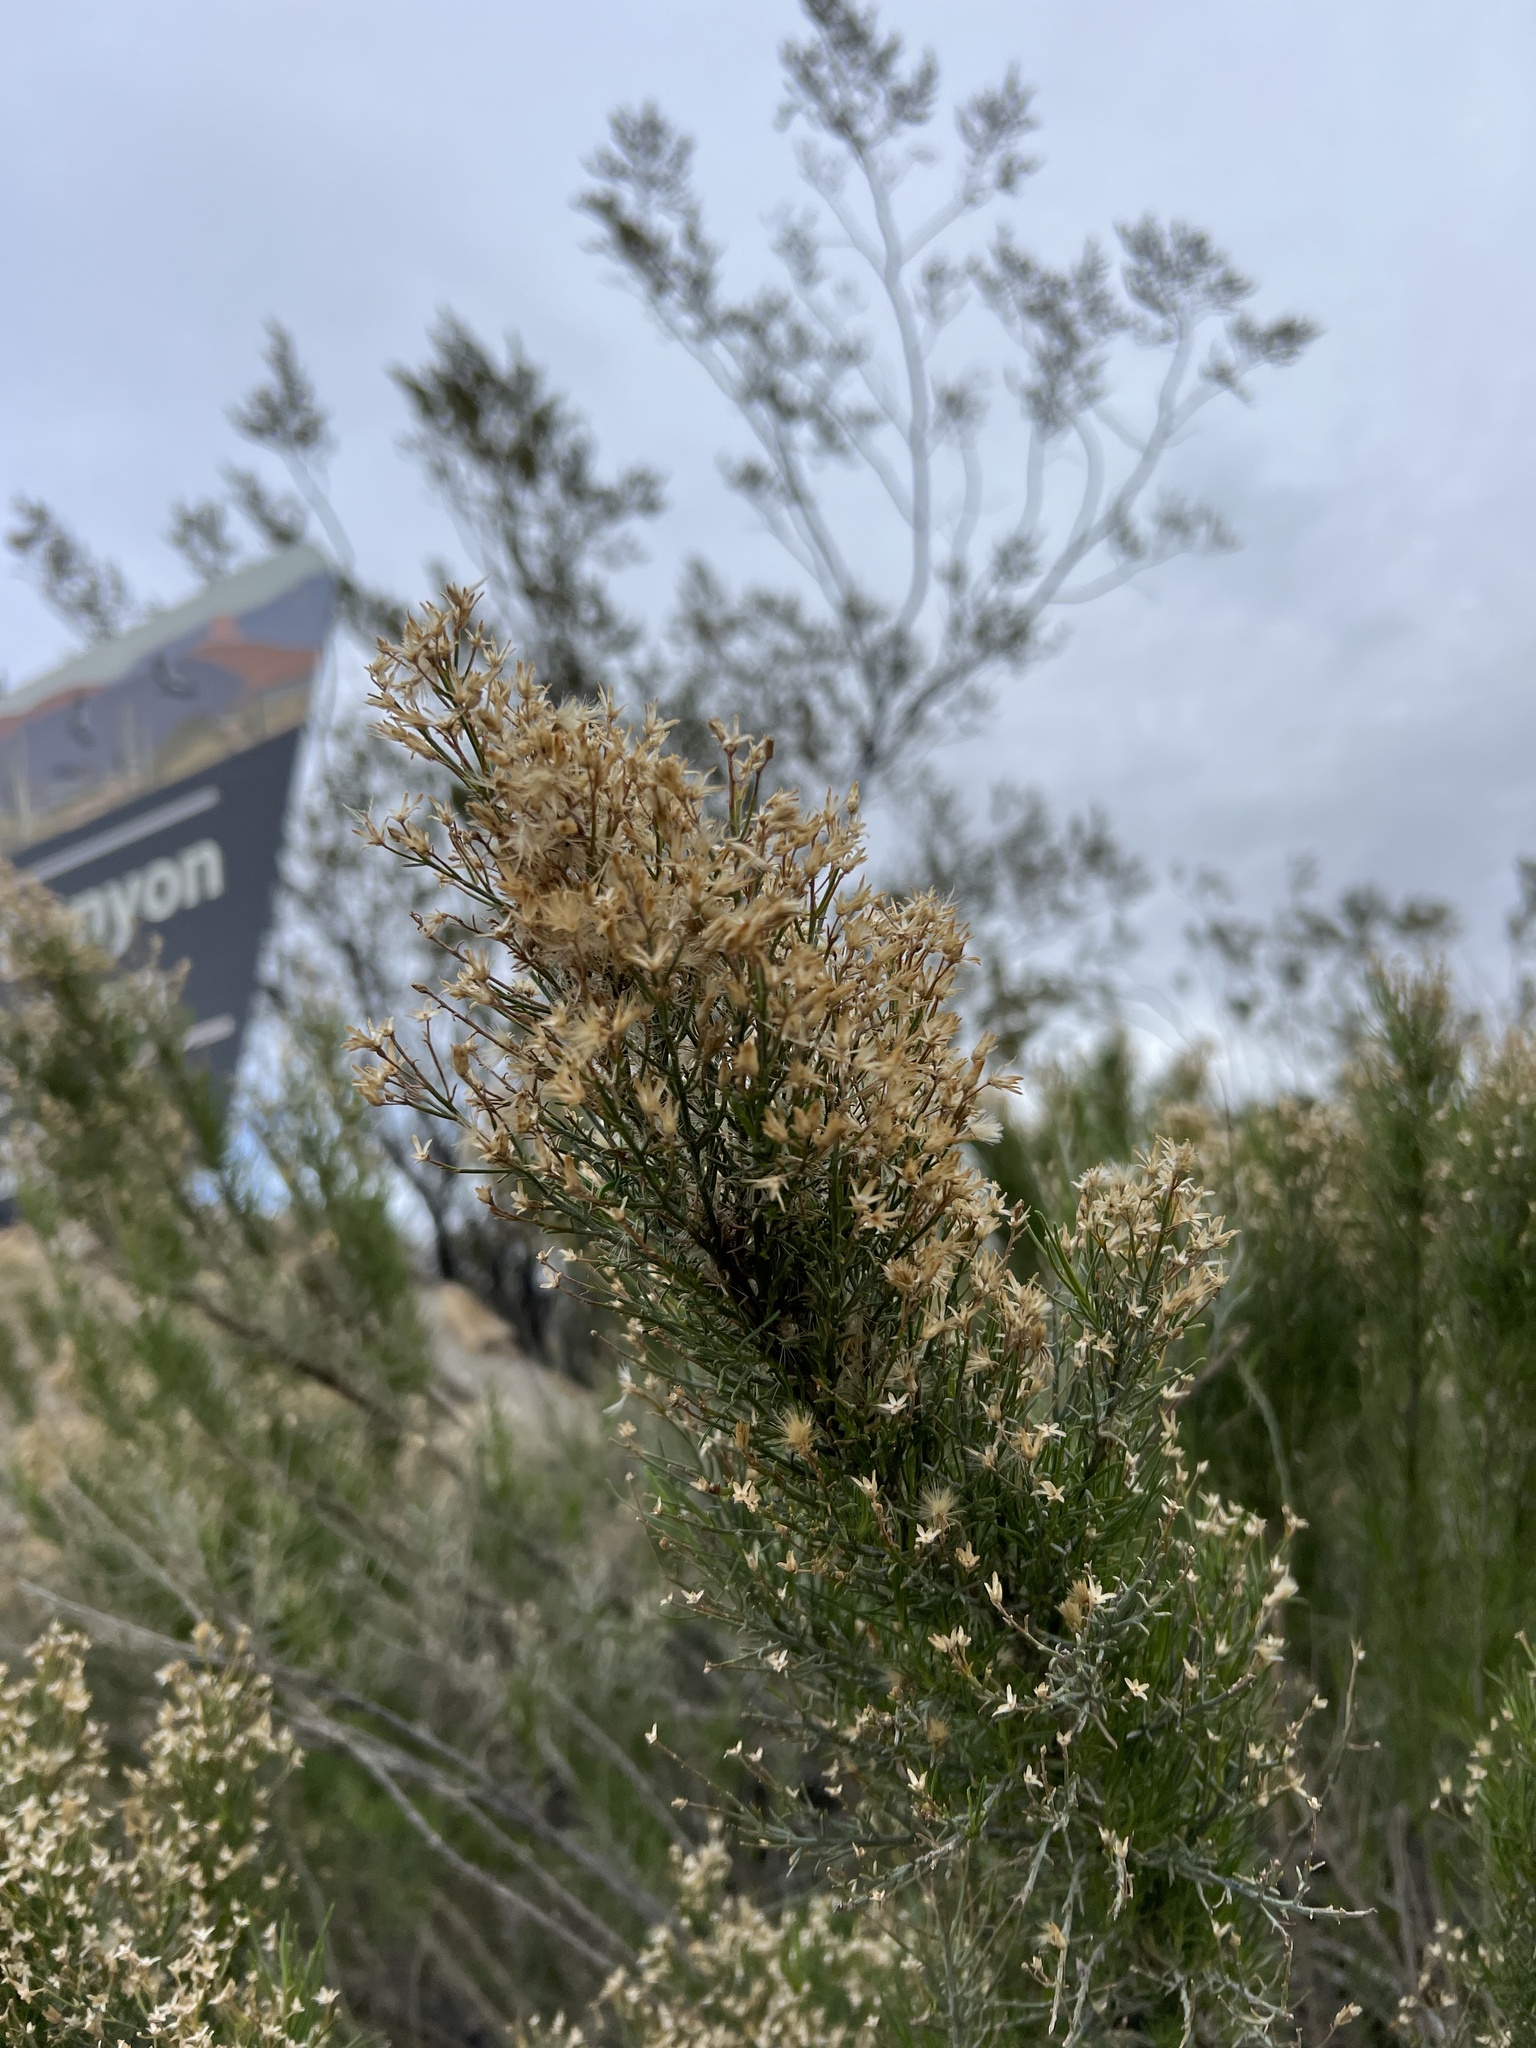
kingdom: Plantae
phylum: Tracheophyta
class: Magnoliopsida
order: Asterales
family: Asteraceae
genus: Ericameria
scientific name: Ericameria paniculata
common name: Punctate rabbitbrush
